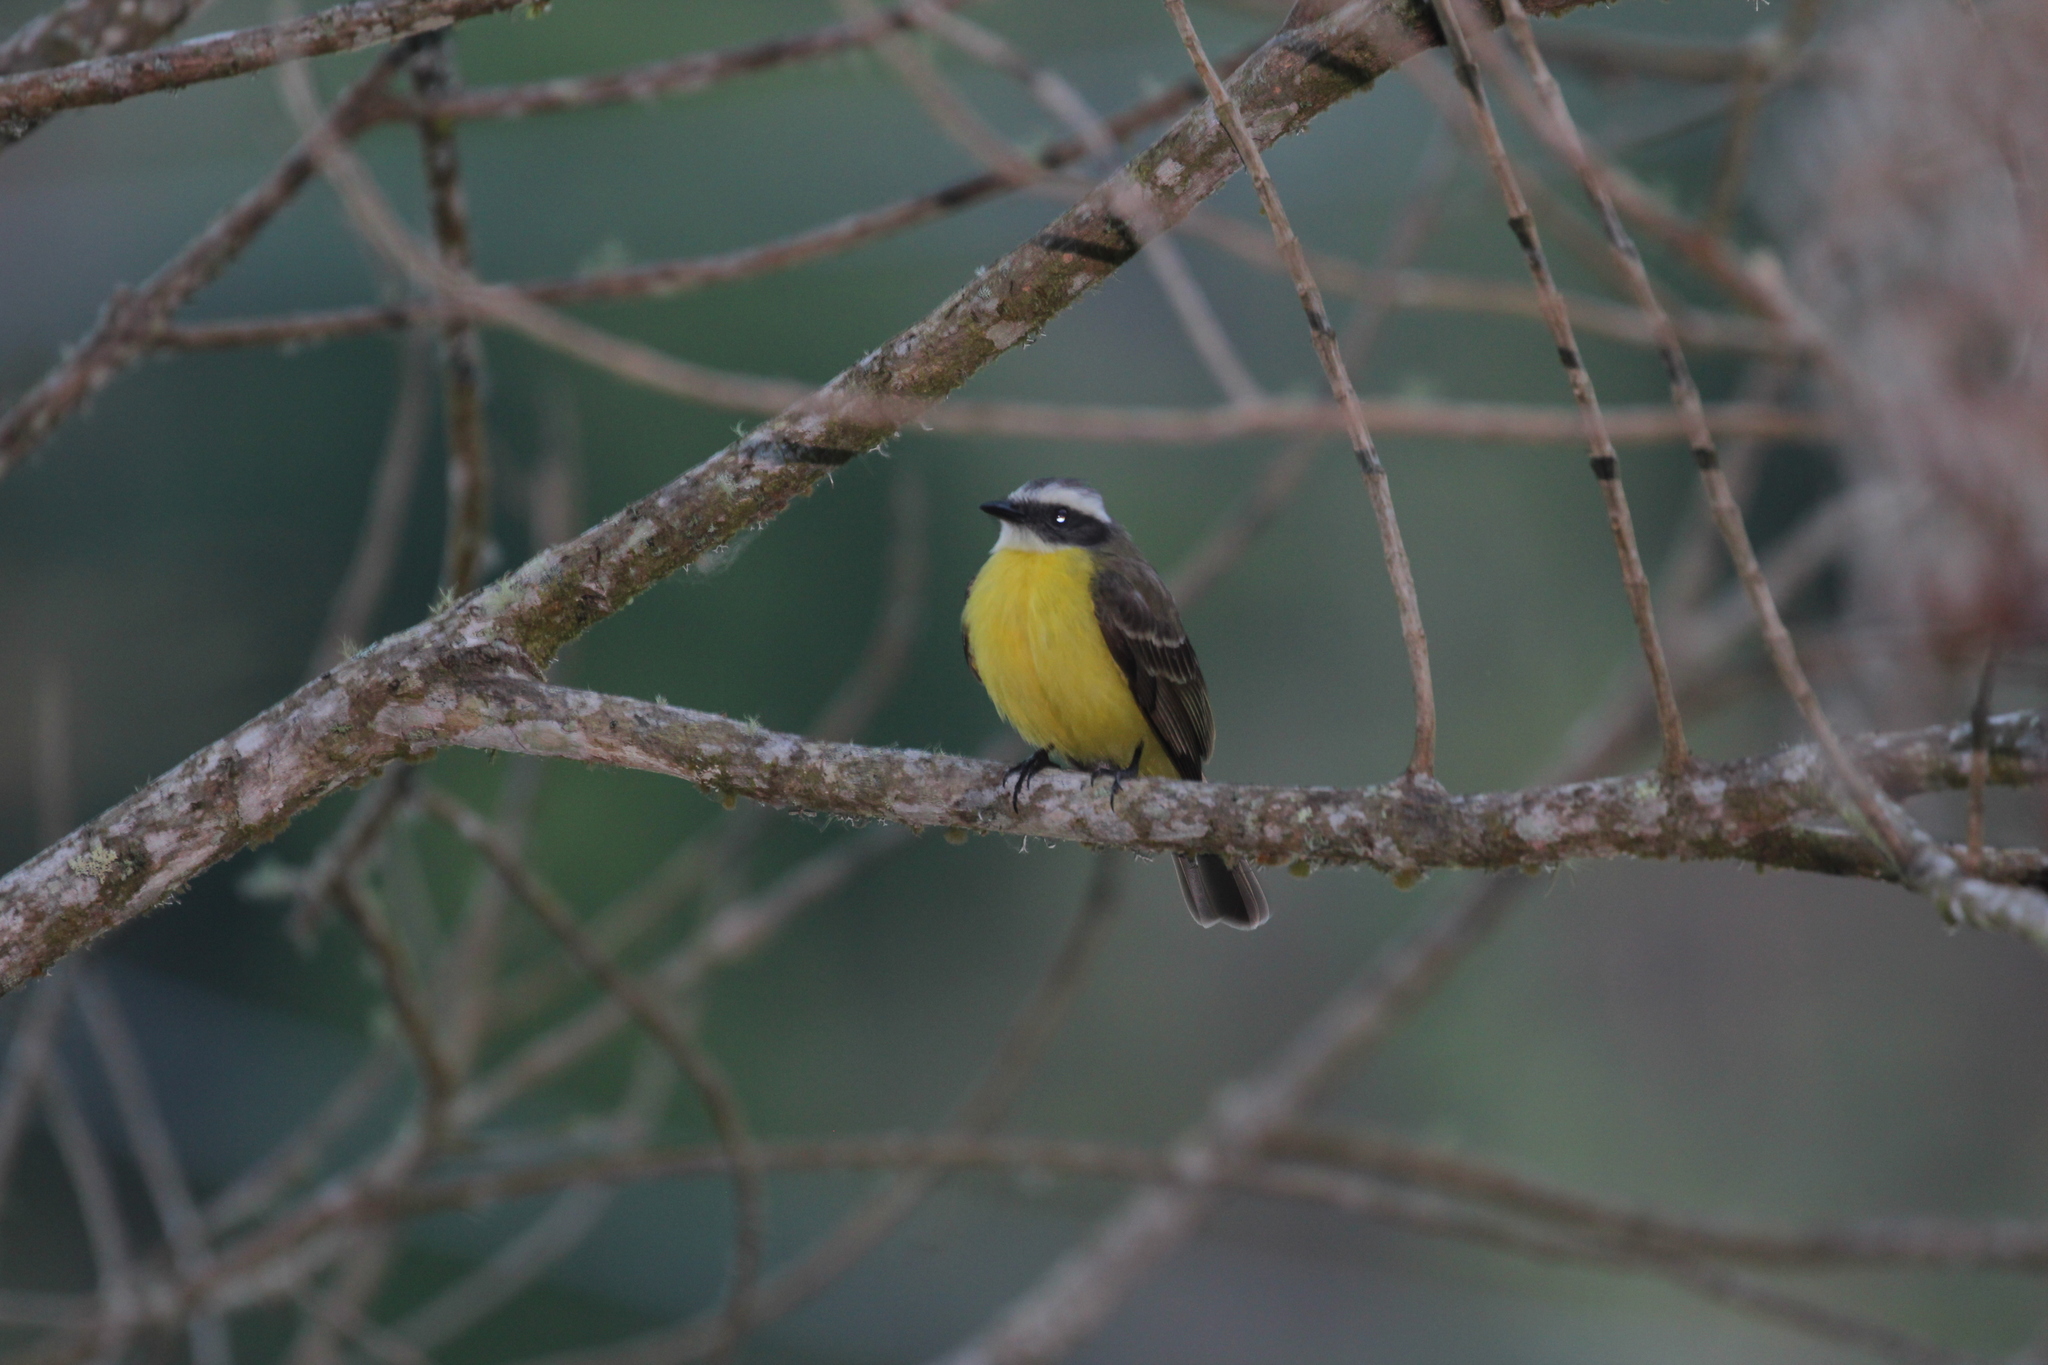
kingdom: Animalia
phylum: Chordata
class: Aves
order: Passeriformes
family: Tyrannidae
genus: Myiozetetes
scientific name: Myiozetetes similis
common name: Social flycatcher
